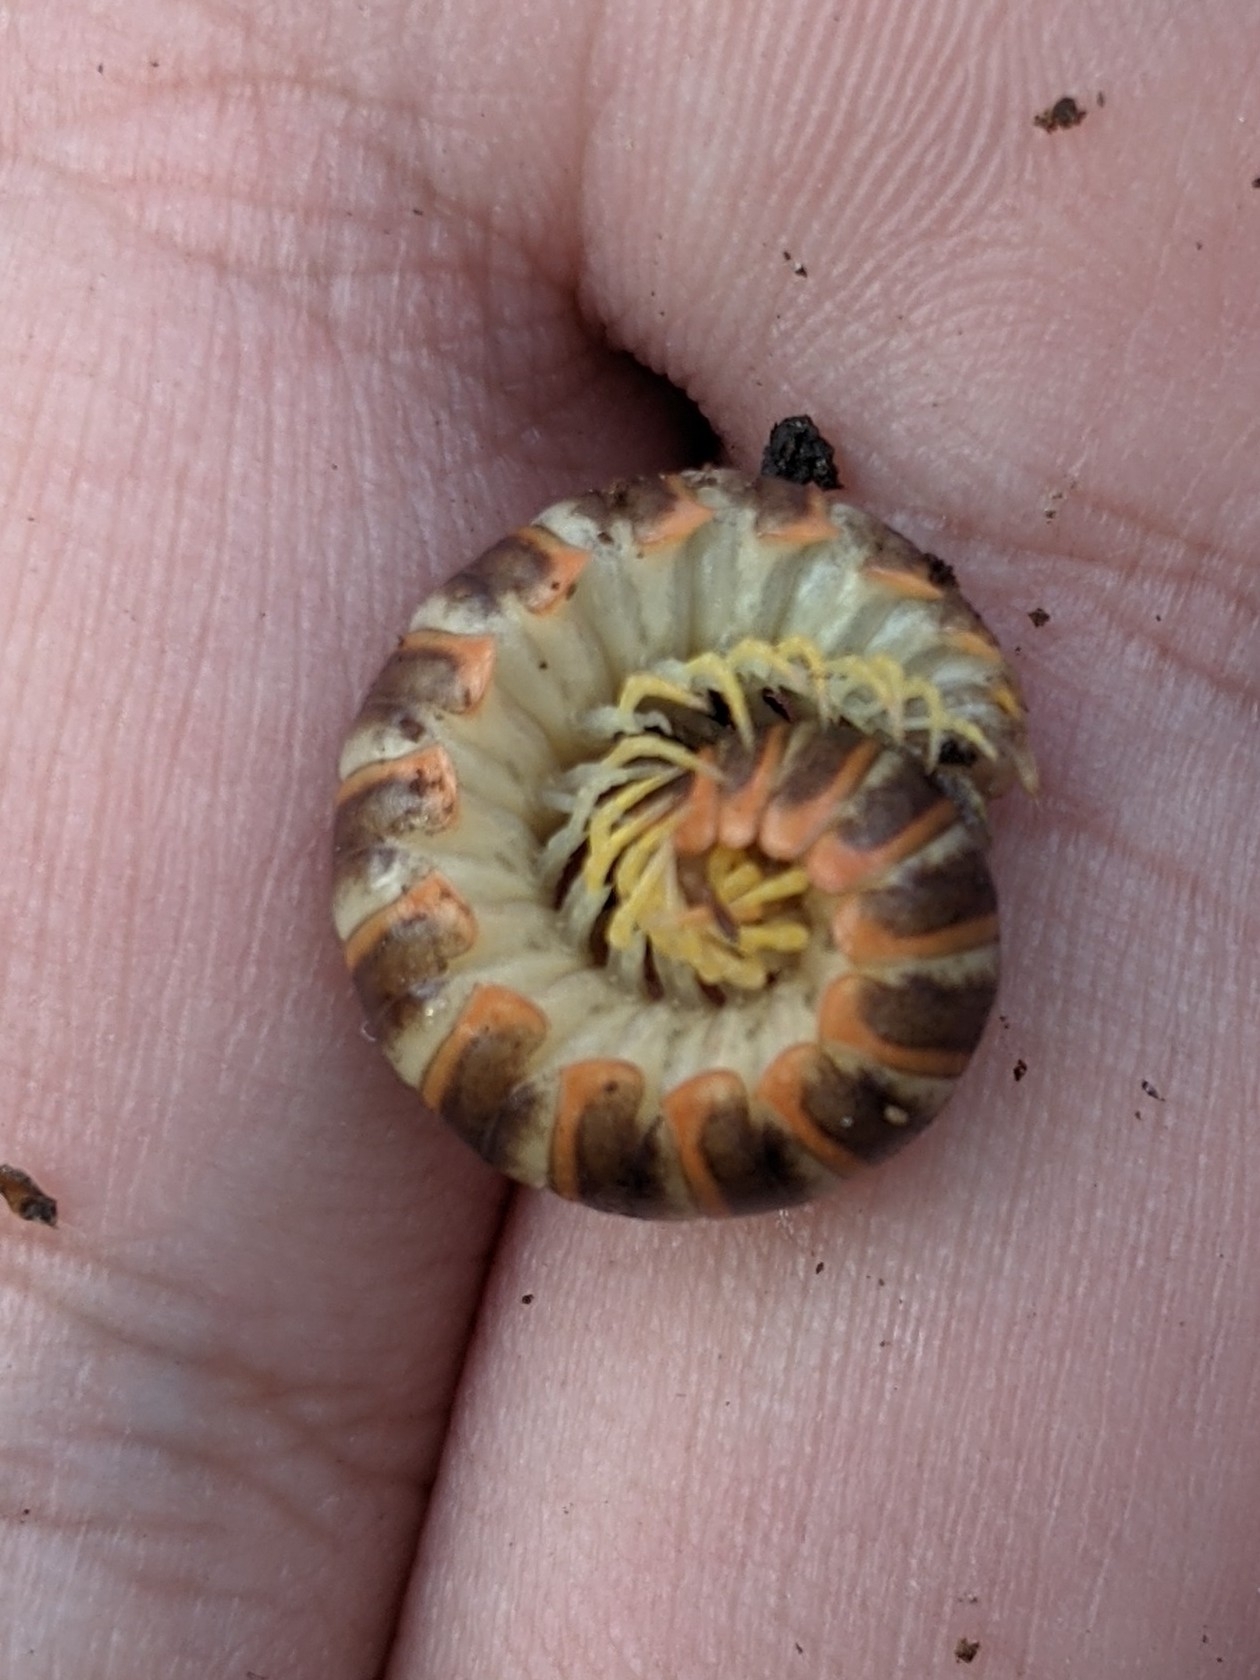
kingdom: Animalia
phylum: Arthropoda
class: Diplopoda
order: Polydesmida
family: Xystodesmidae
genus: Apheloria
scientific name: Apheloria virginiensis
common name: Black-and-gold flat millipede
